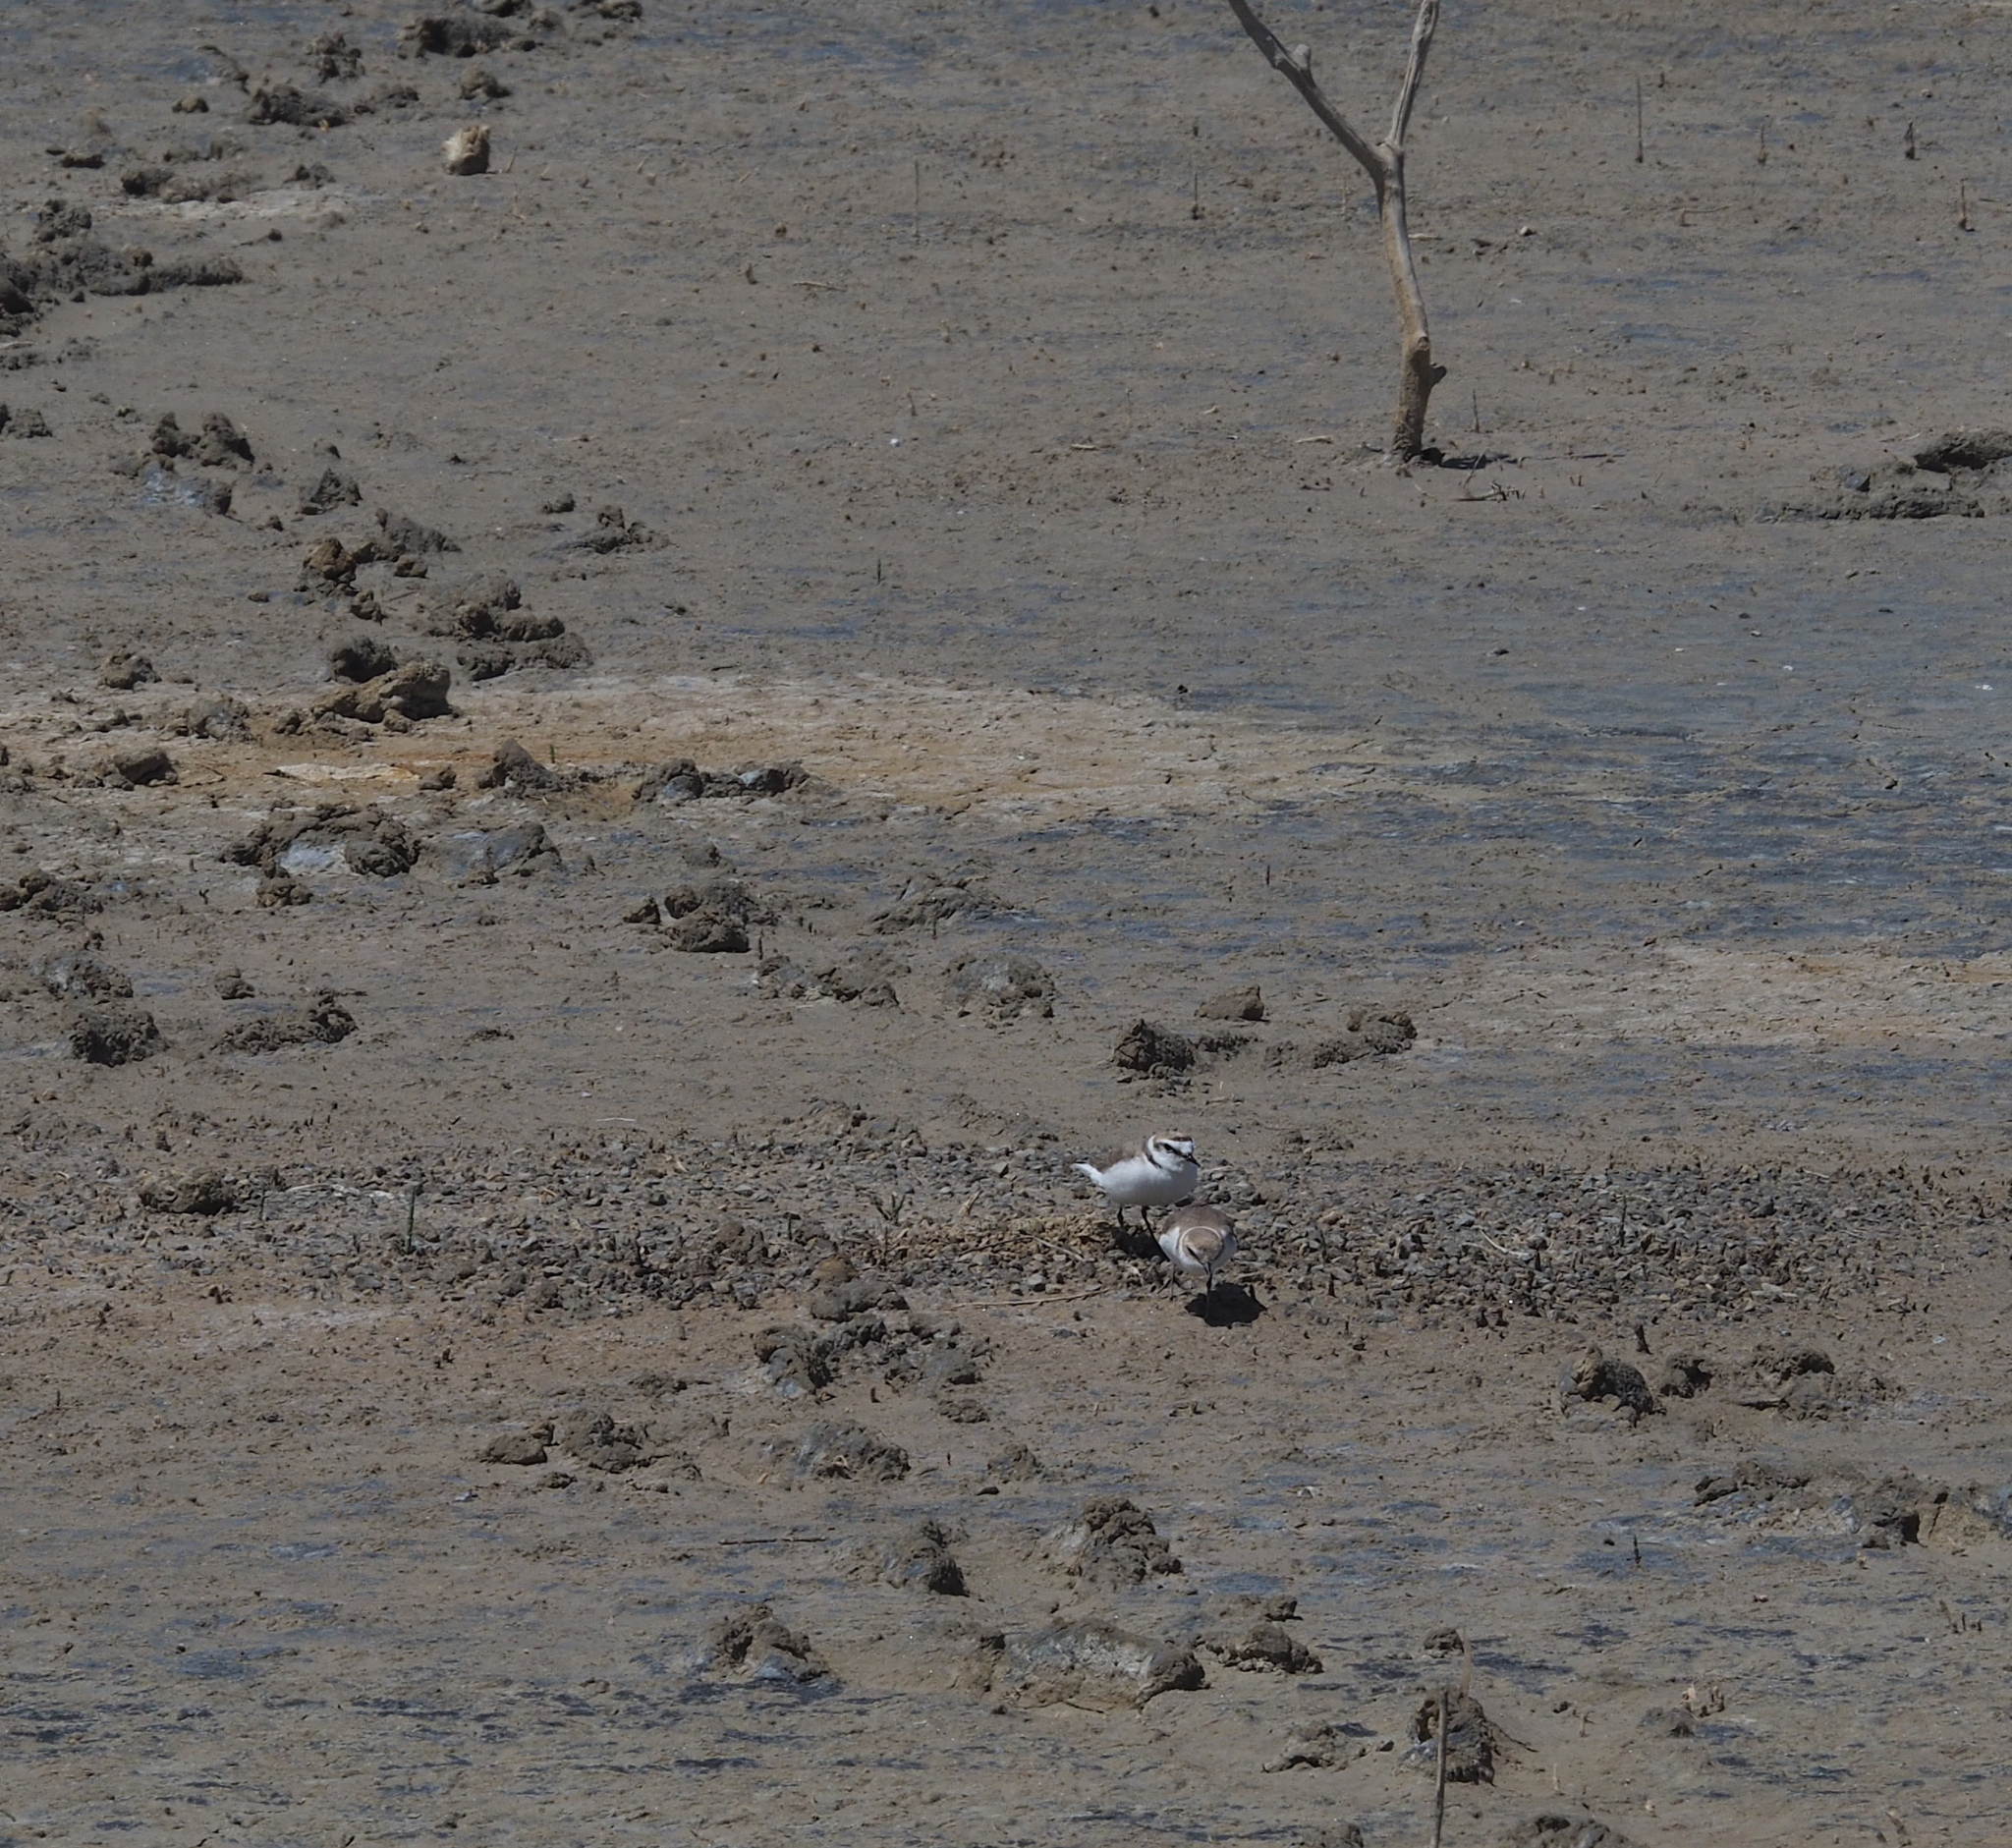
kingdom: Animalia
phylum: Chordata
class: Aves
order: Charadriiformes
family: Charadriidae
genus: Charadrius
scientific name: Charadrius alexandrinus
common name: Kentish plover
